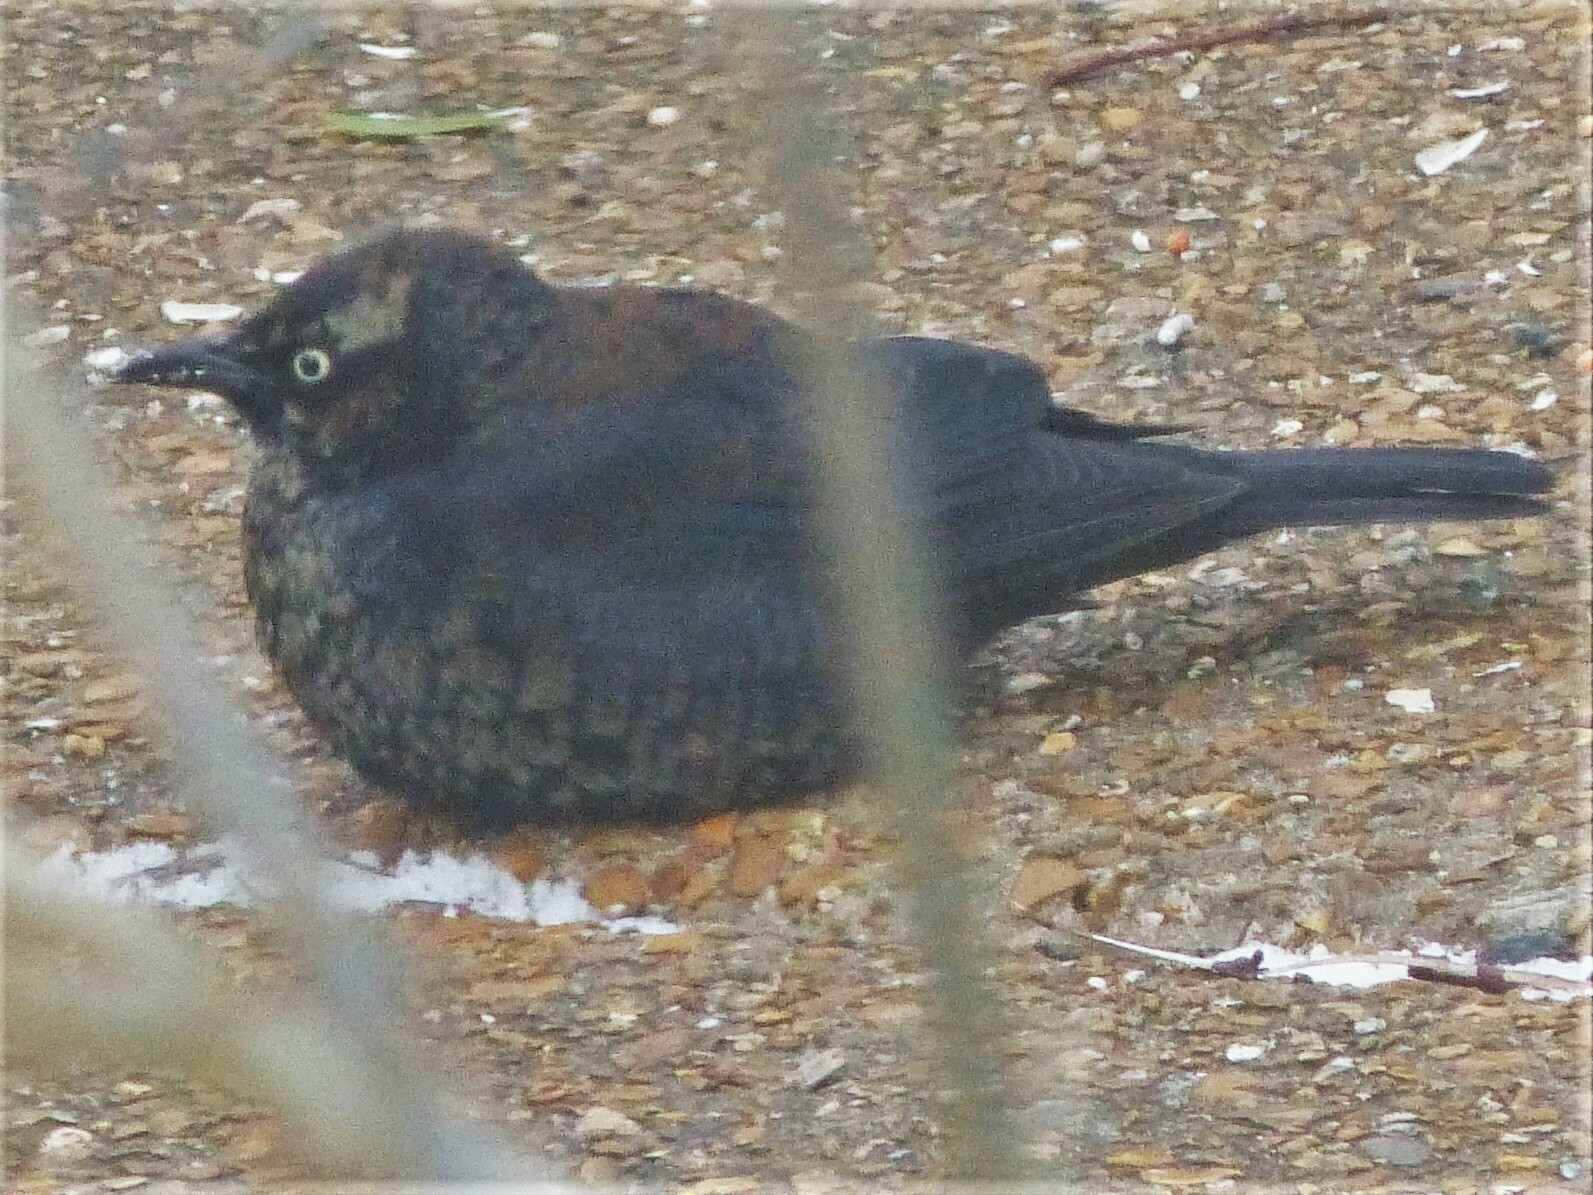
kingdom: Animalia
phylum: Chordata
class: Aves
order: Passeriformes
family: Icteridae
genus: Euphagus
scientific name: Euphagus carolinus
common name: Rusty blackbird
